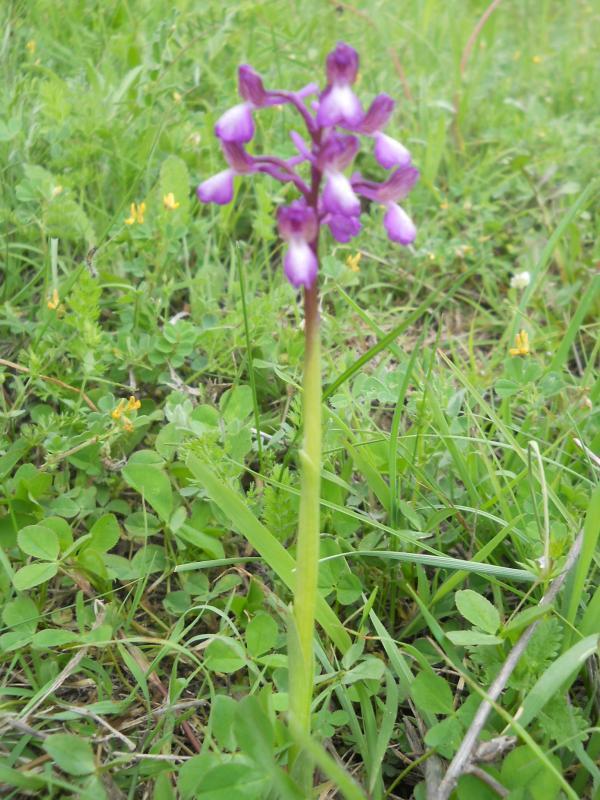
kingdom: Plantae
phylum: Tracheophyta
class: Liliopsida
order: Asparagales
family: Orchidaceae
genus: Anacamptis
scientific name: Anacamptis morio
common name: Green-winged orchid
